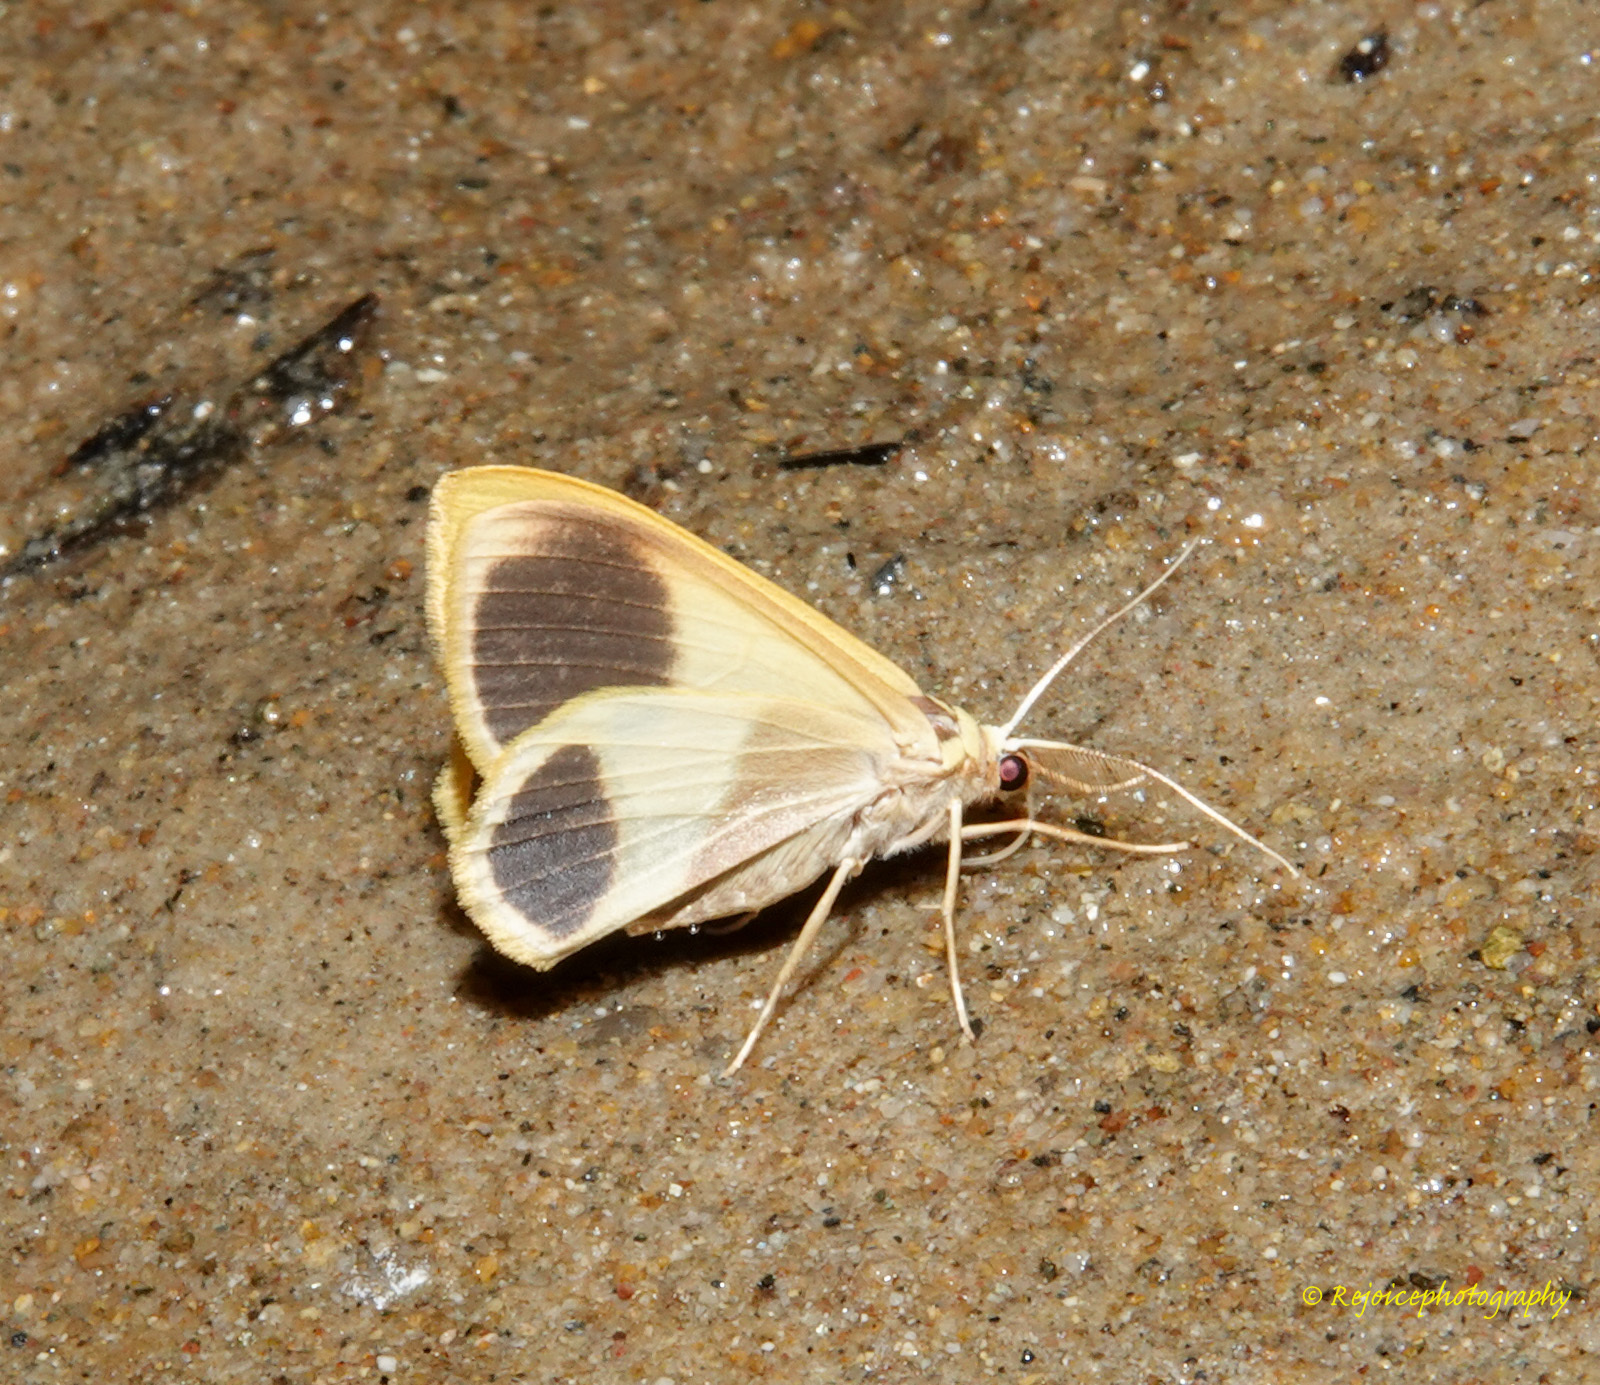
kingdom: Animalia
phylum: Arthropoda
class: Insecta
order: Lepidoptera
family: Geometridae
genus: Plutodes
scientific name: Plutodes flavescens
